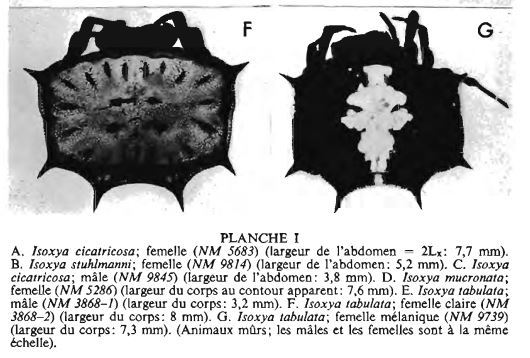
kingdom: Animalia
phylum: Arthropoda
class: Arachnida
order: Araneae
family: Araneidae
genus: Isoxya
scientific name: Isoxya tabulata
